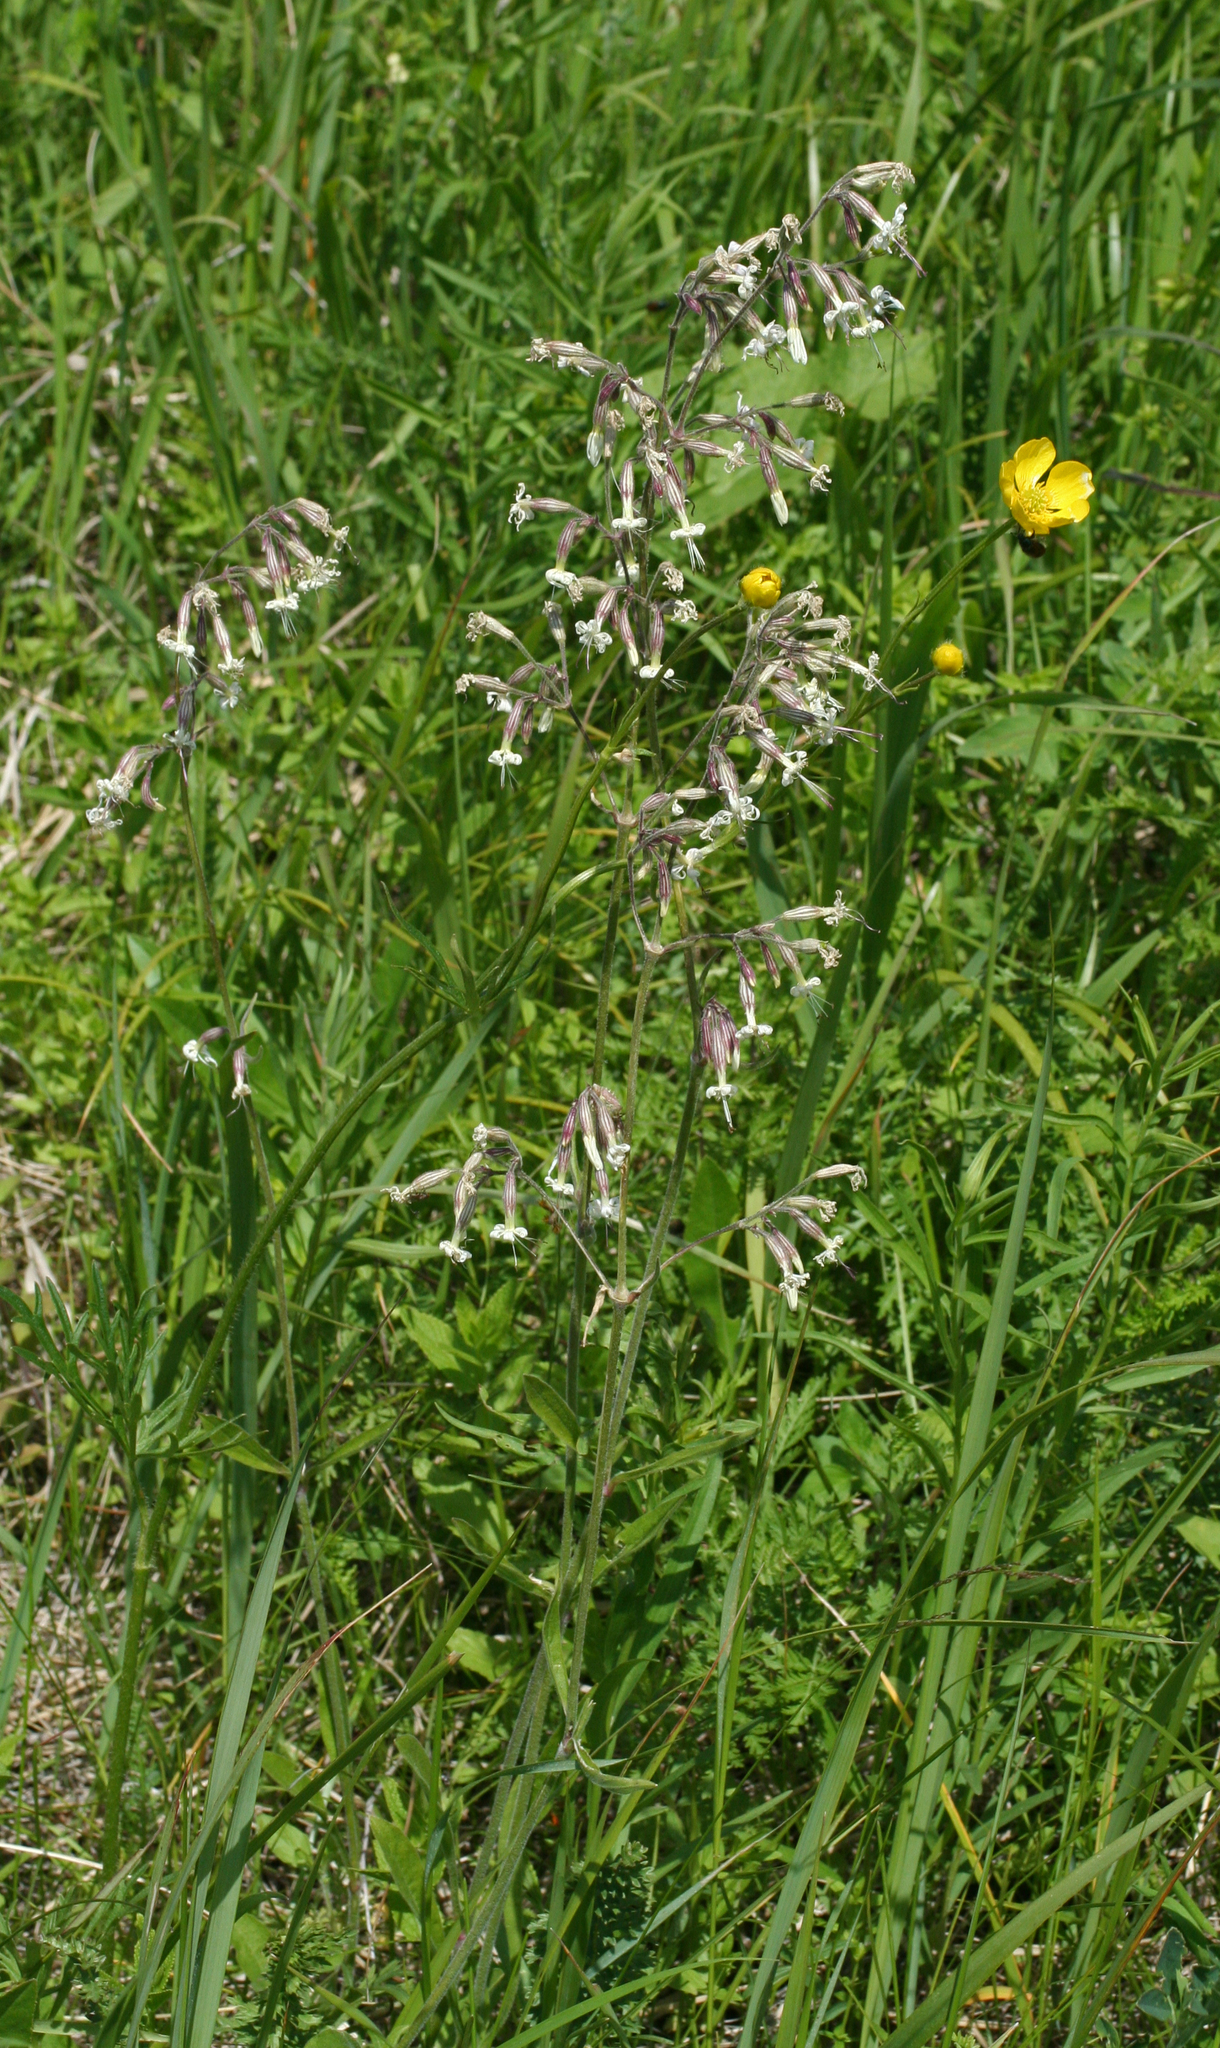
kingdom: Plantae
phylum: Tracheophyta
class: Magnoliopsida
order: Caryophyllales
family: Caryophyllaceae
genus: Silene
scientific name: Silene nutans
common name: Nottingham catchfly
